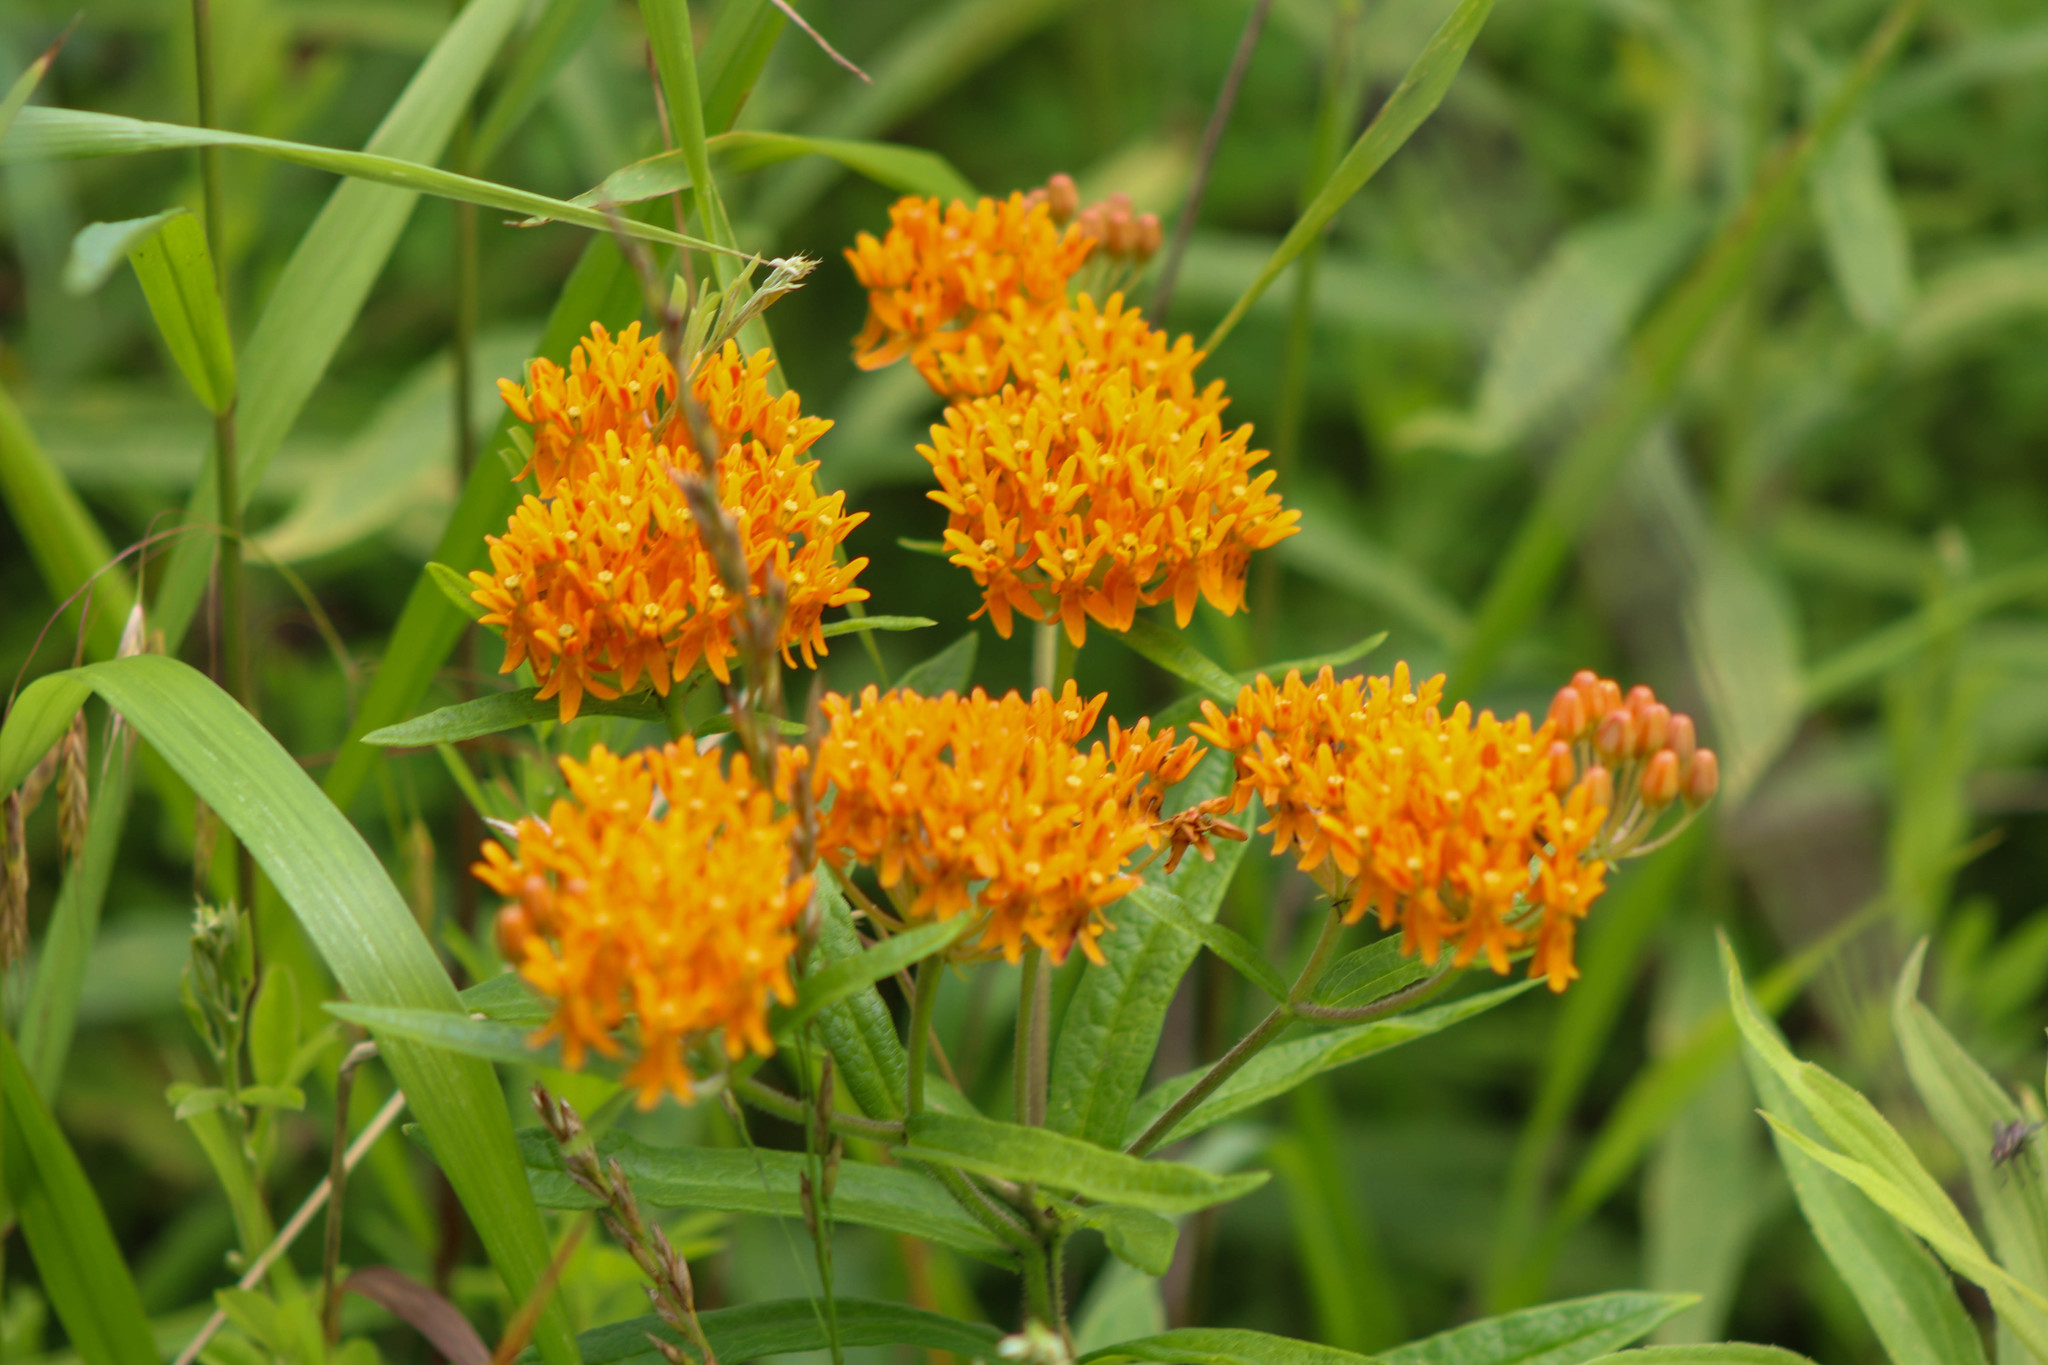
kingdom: Plantae
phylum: Tracheophyta
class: Magnoliopsida
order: Gentianales
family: Apocynaceae
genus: Asclepias
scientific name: Asclepias tuberosa
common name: Butterfly milkweed
